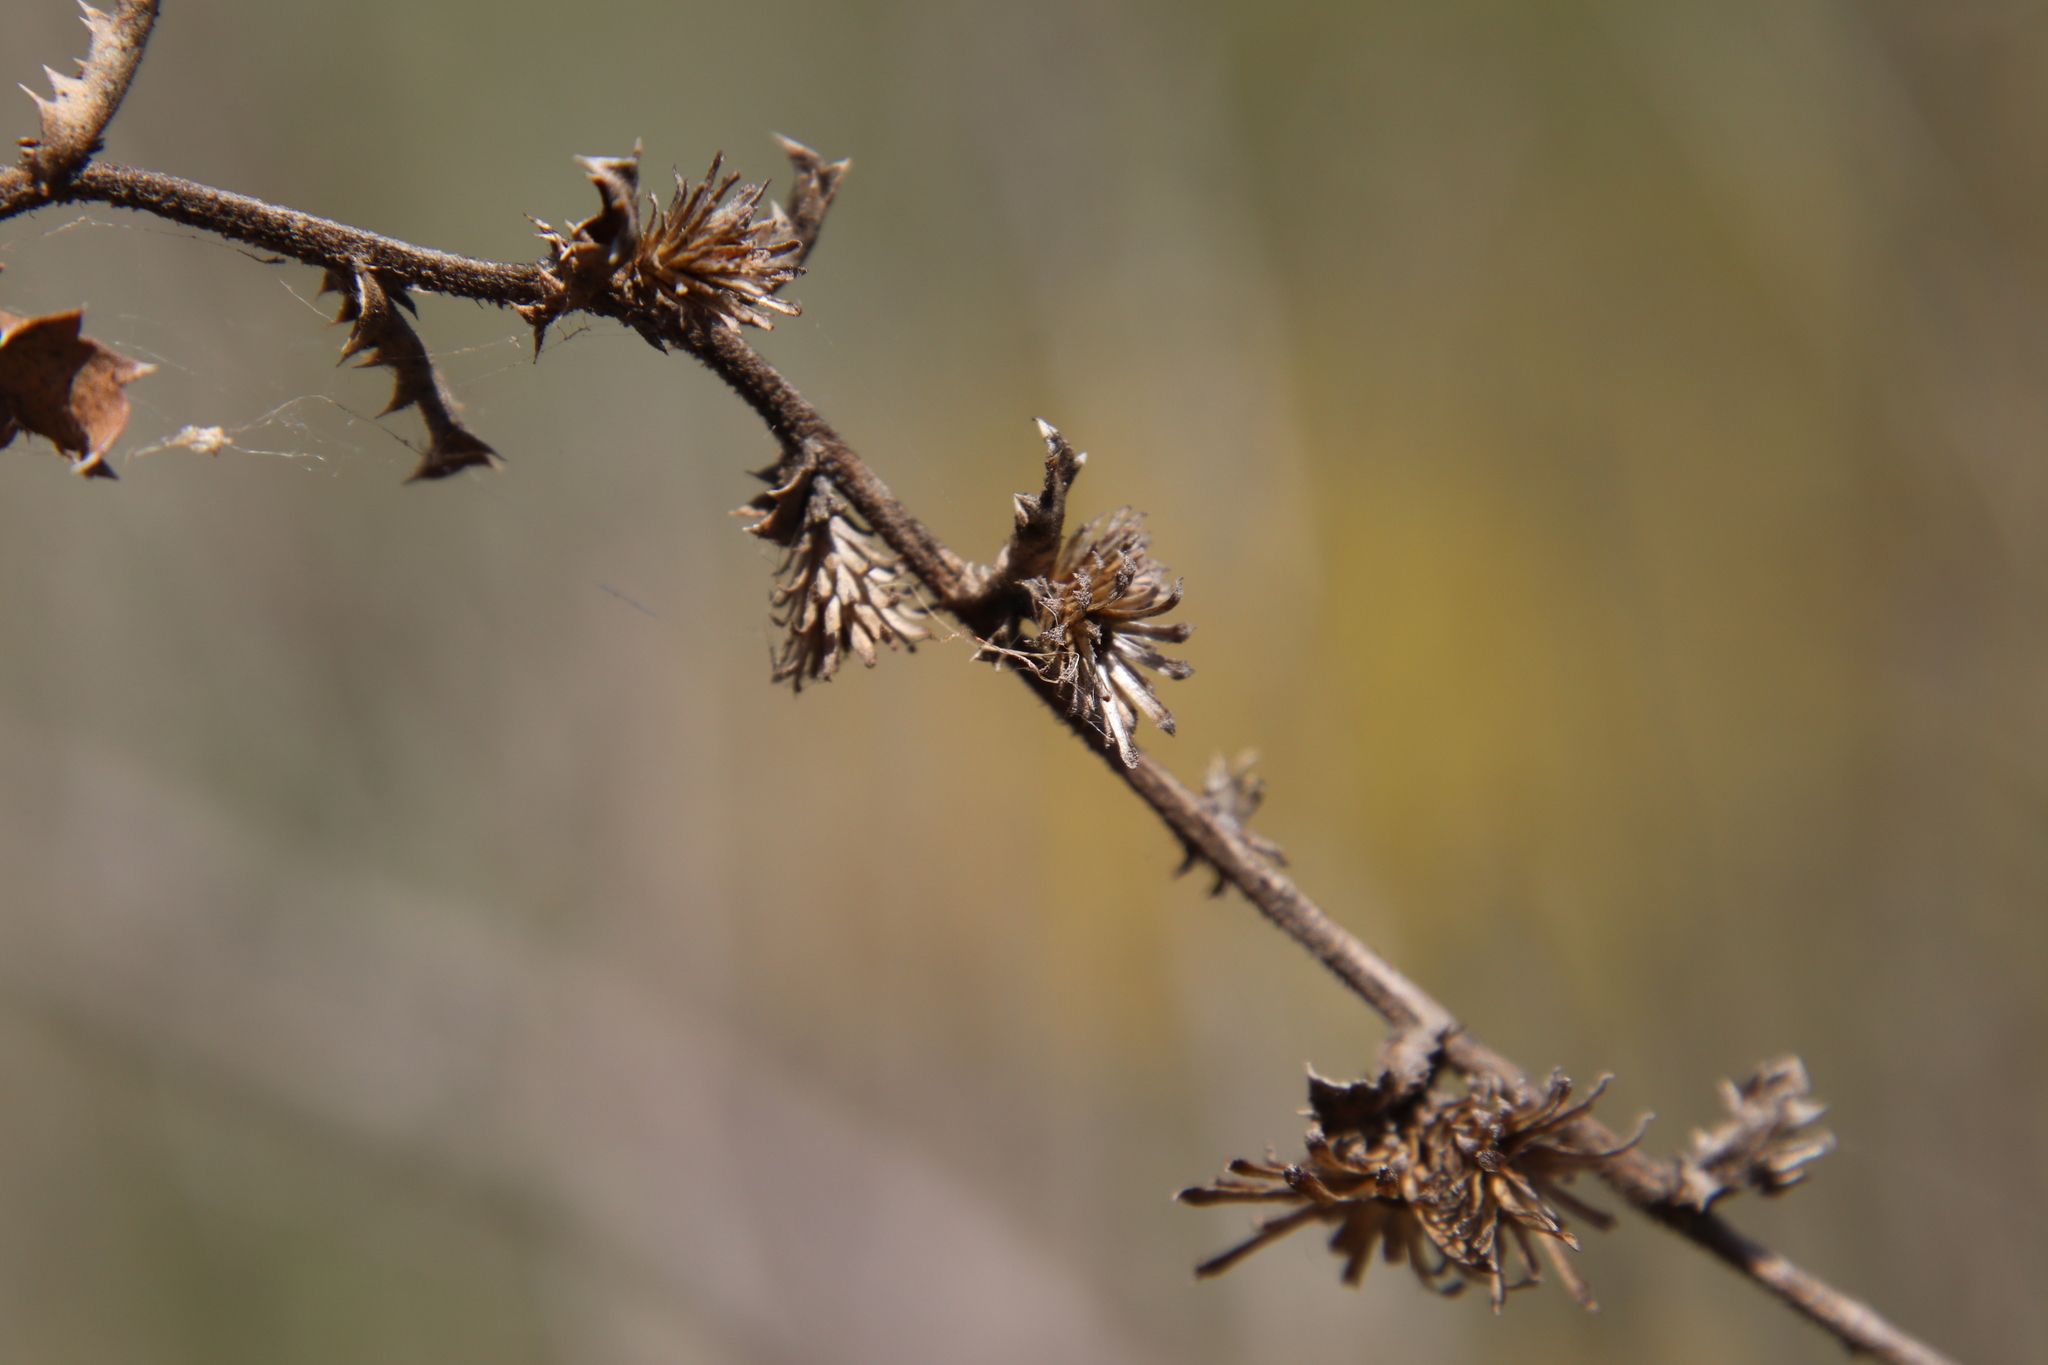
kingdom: Plantae
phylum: Tracheophyta
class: Magnoliopsida
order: Asterales
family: Asteraceae
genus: Hazardia
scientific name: Hazardia squarrosa
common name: Saw-tooth goldenbush
